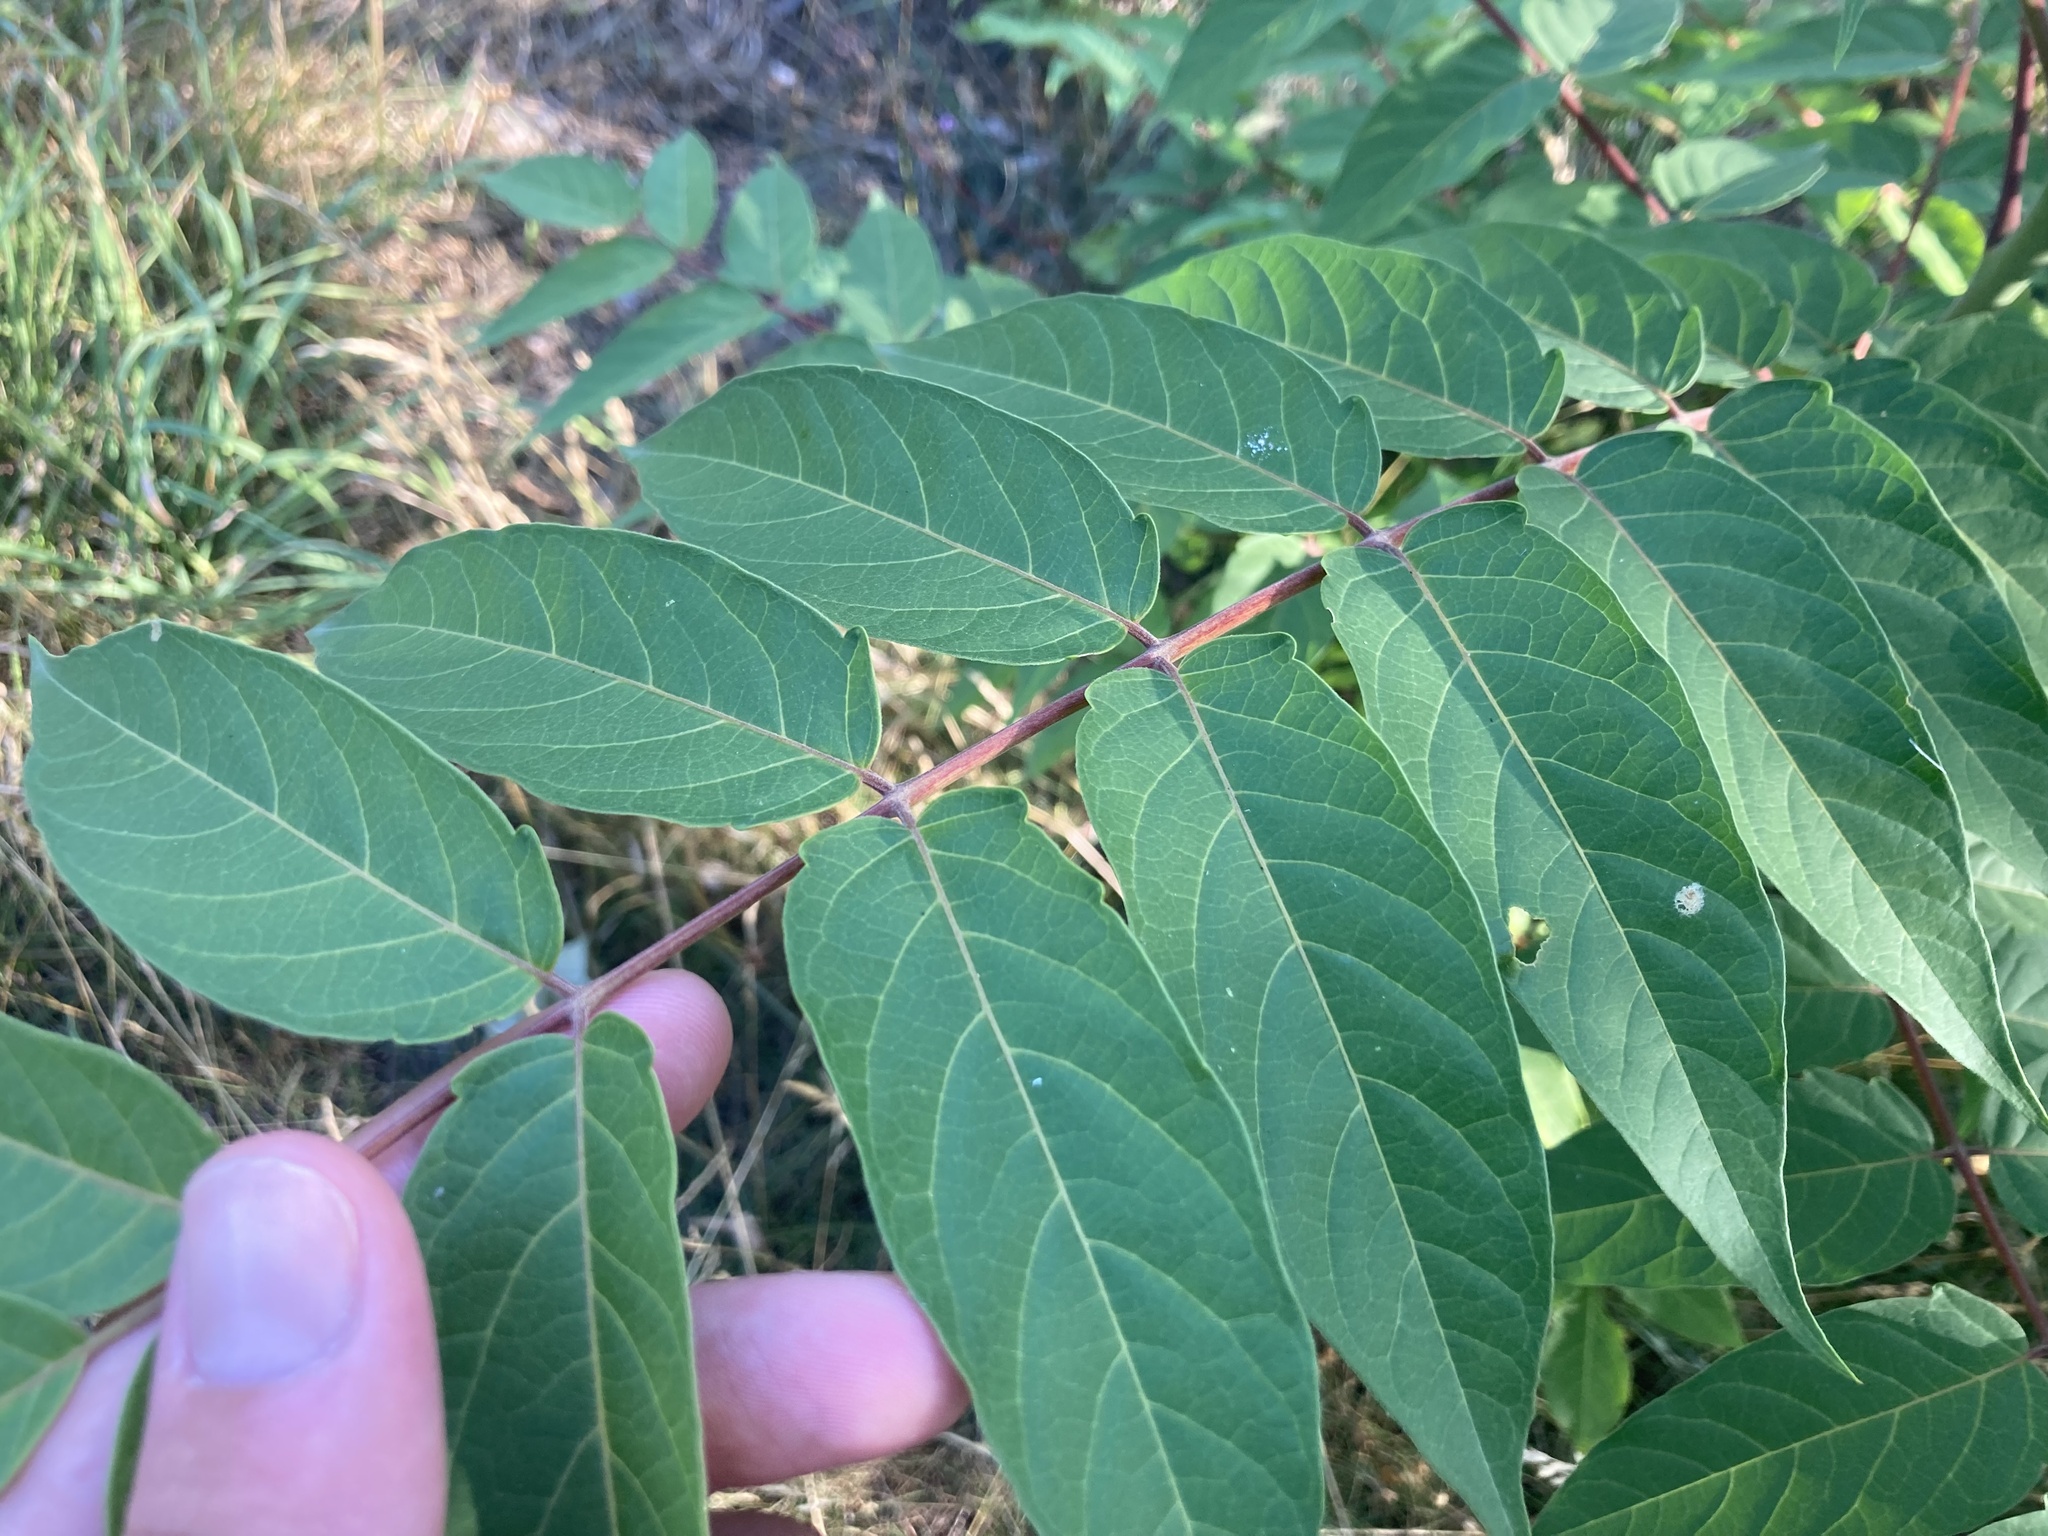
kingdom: Plantae
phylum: Tracheophyta
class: Magnoliopsida
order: Sapindales
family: Simaroubaceae
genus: Ailanthus
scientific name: Ailanthus altissima
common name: Tree-of-heaven
